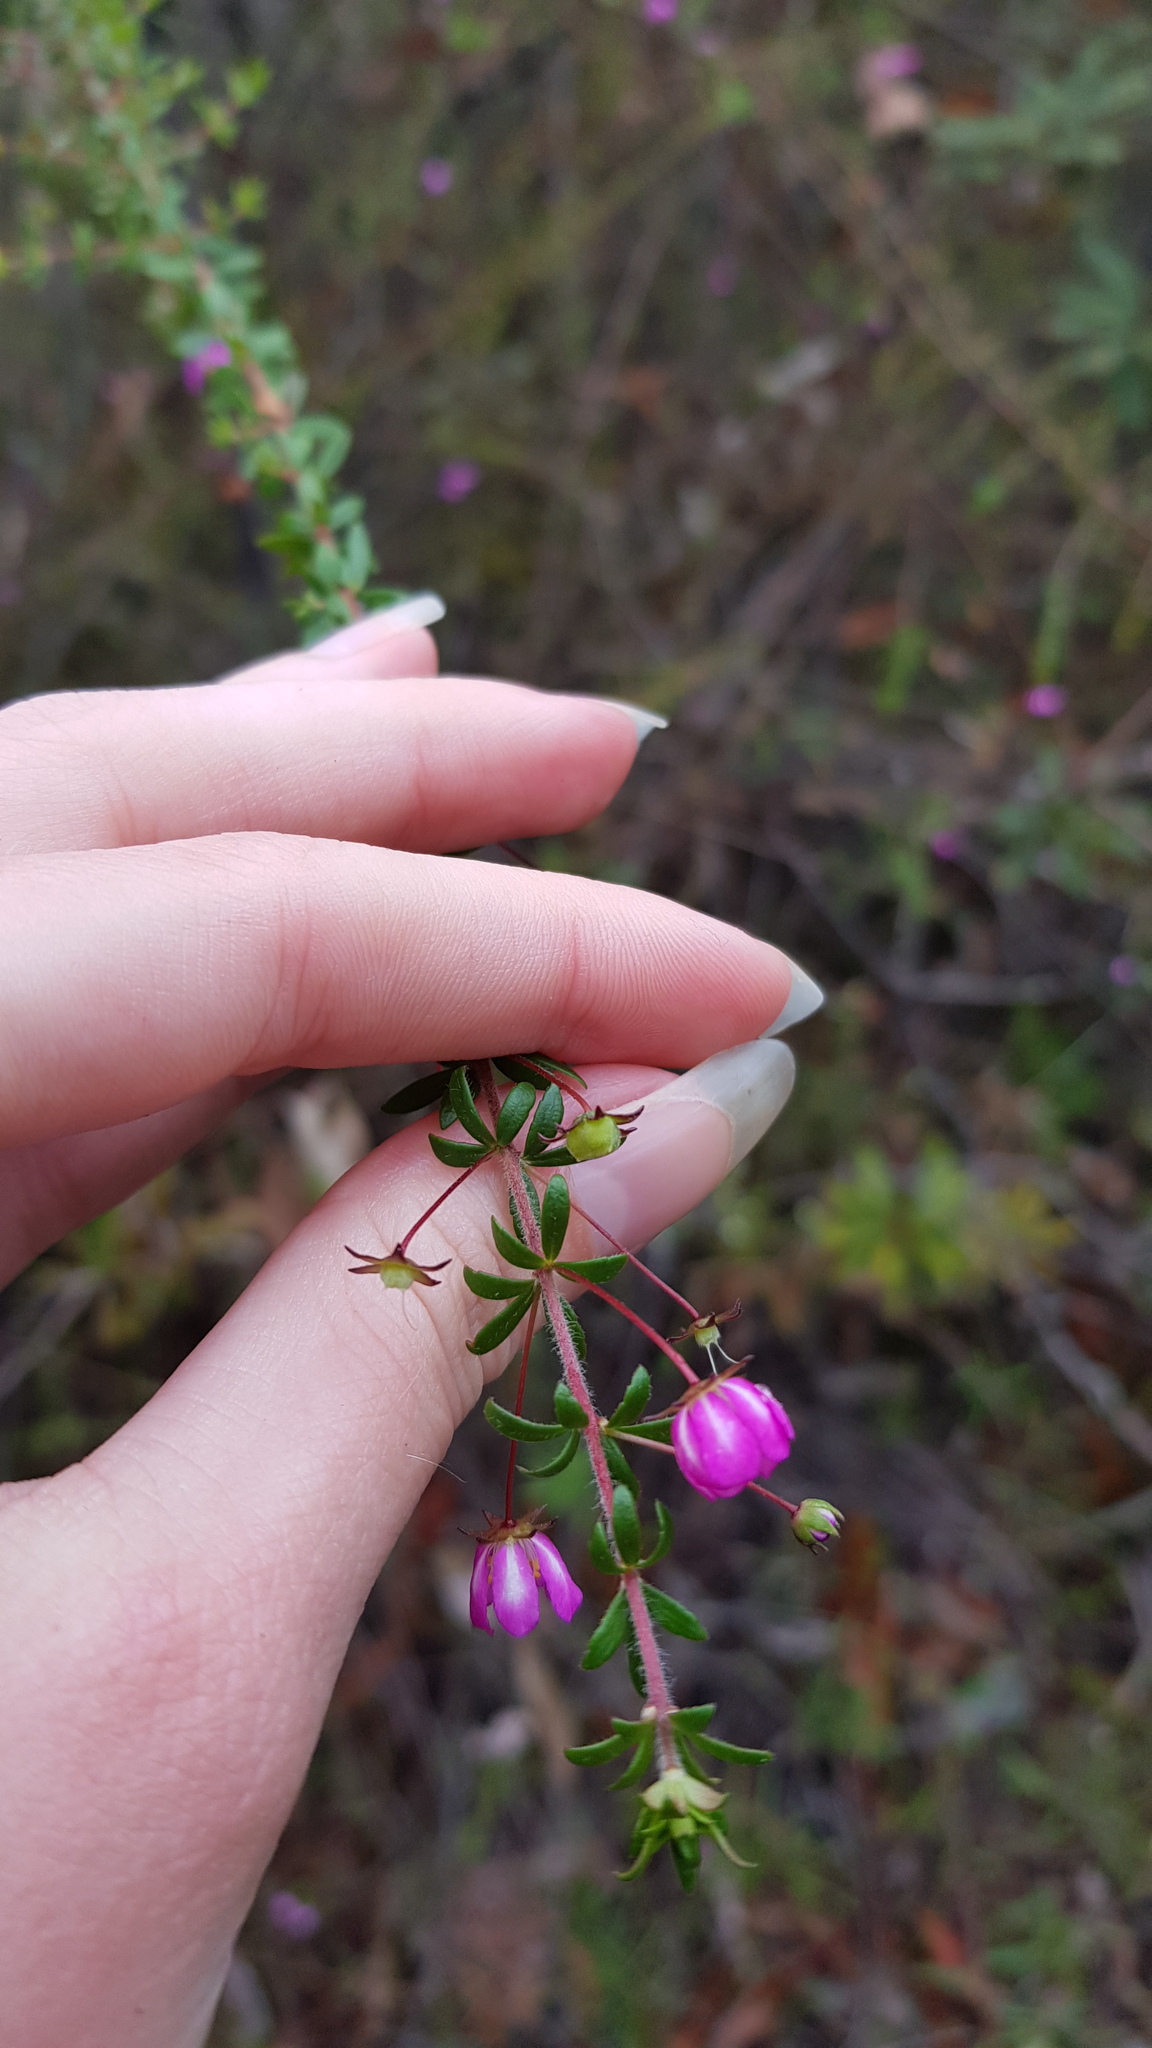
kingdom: Plantae
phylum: Tracheophyta
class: Magnoliopsida
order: Oxalidales
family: Cunoniaceae
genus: Bauera
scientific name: Bauera microphylla
